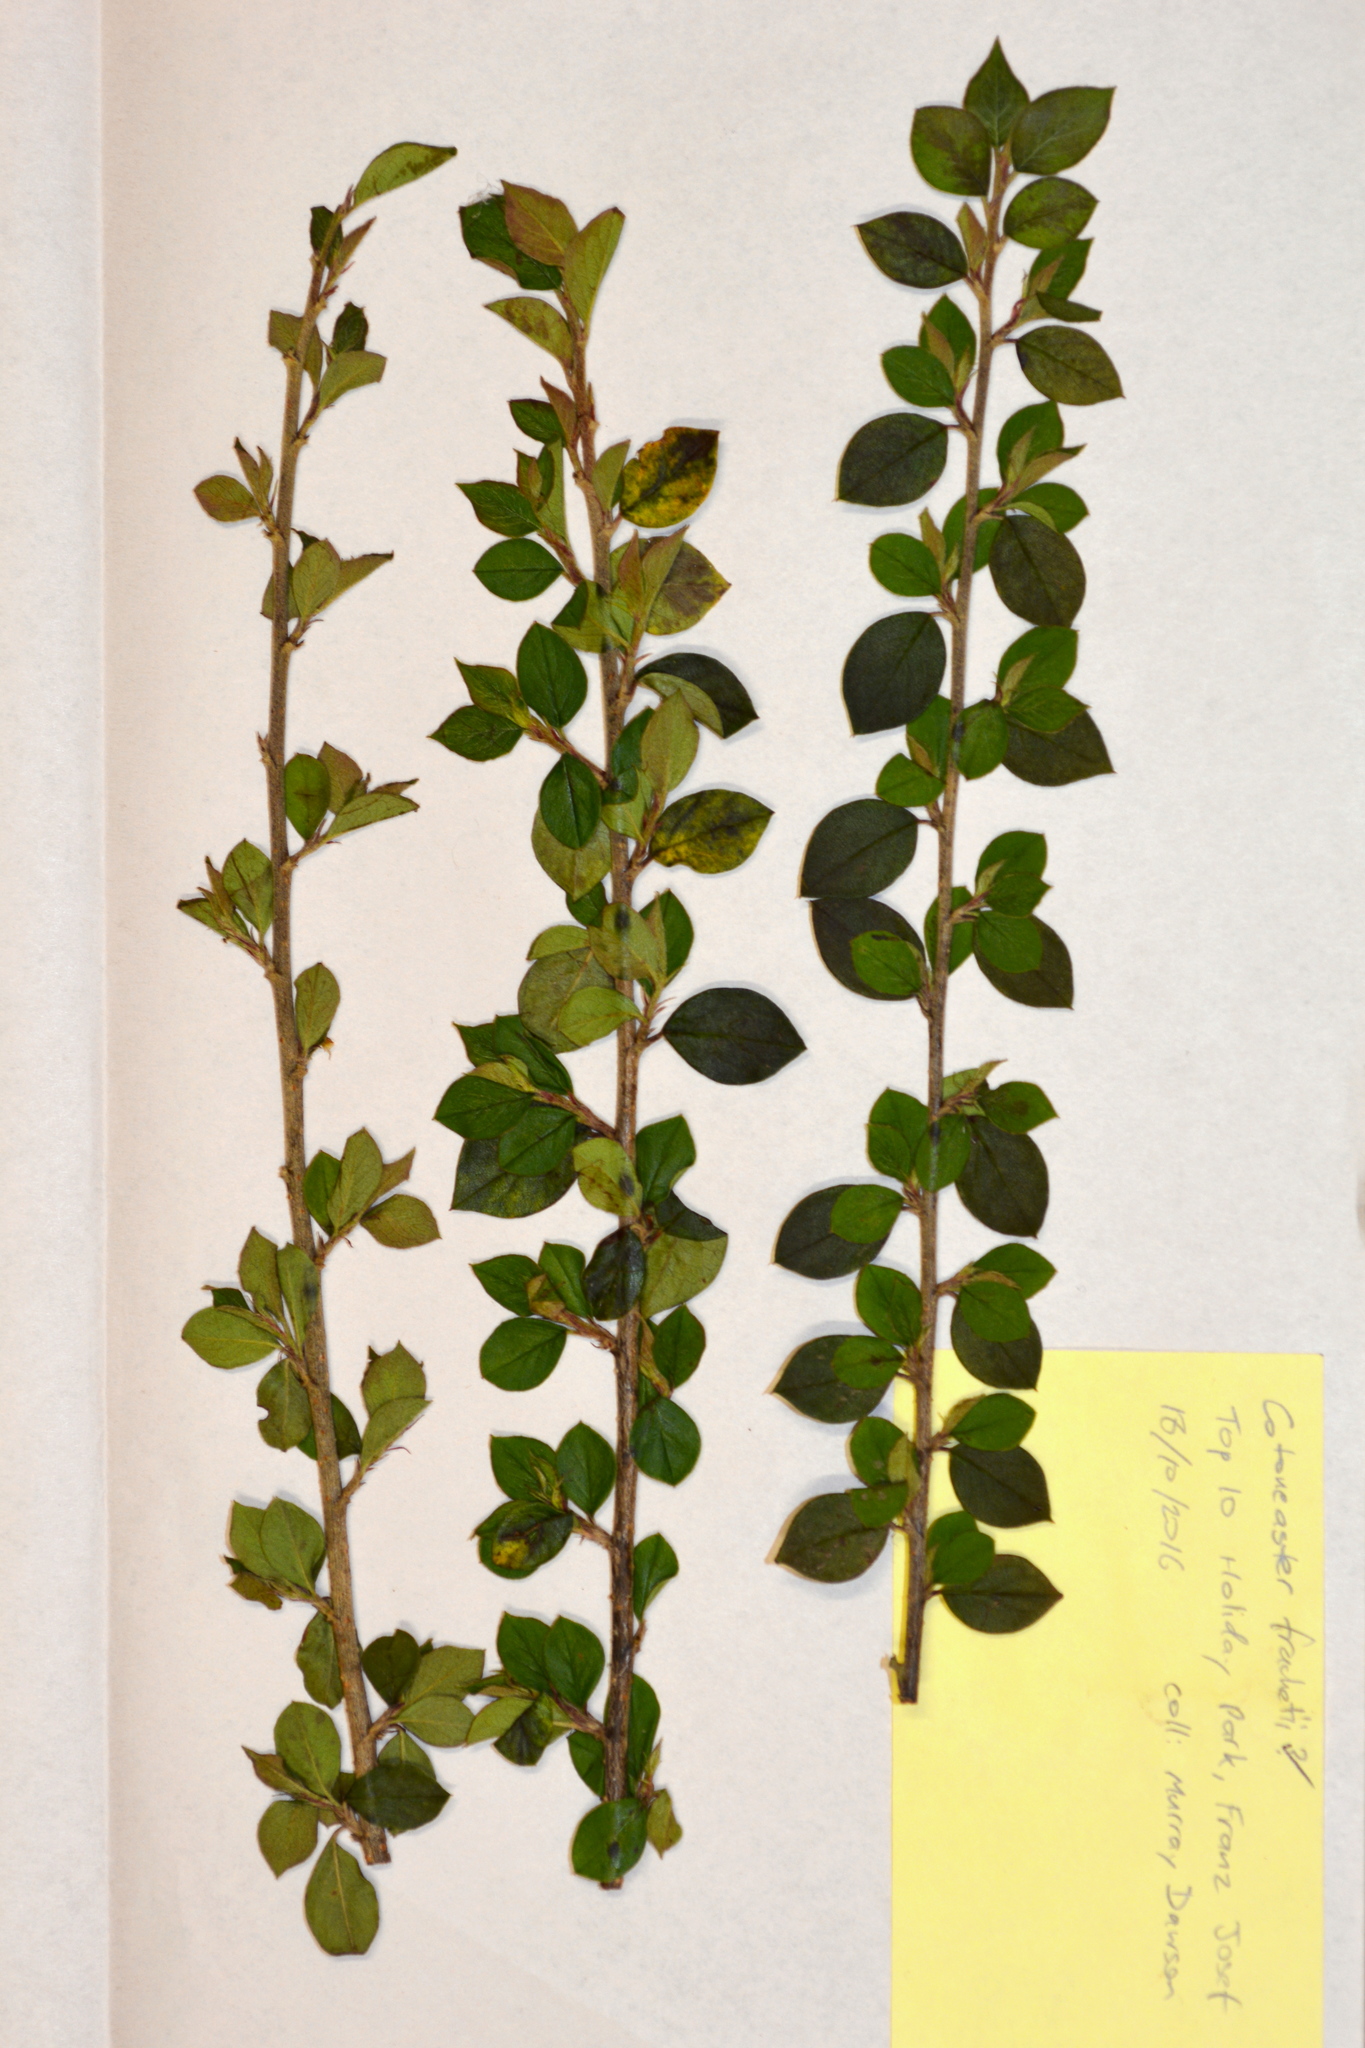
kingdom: Plantae
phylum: Tracheophyta
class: Magnoliopsida
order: Rosales
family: Rosaceae
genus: Cotoneaster
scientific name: Cotoneaster simonsii
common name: Himalayan cotoneaster
